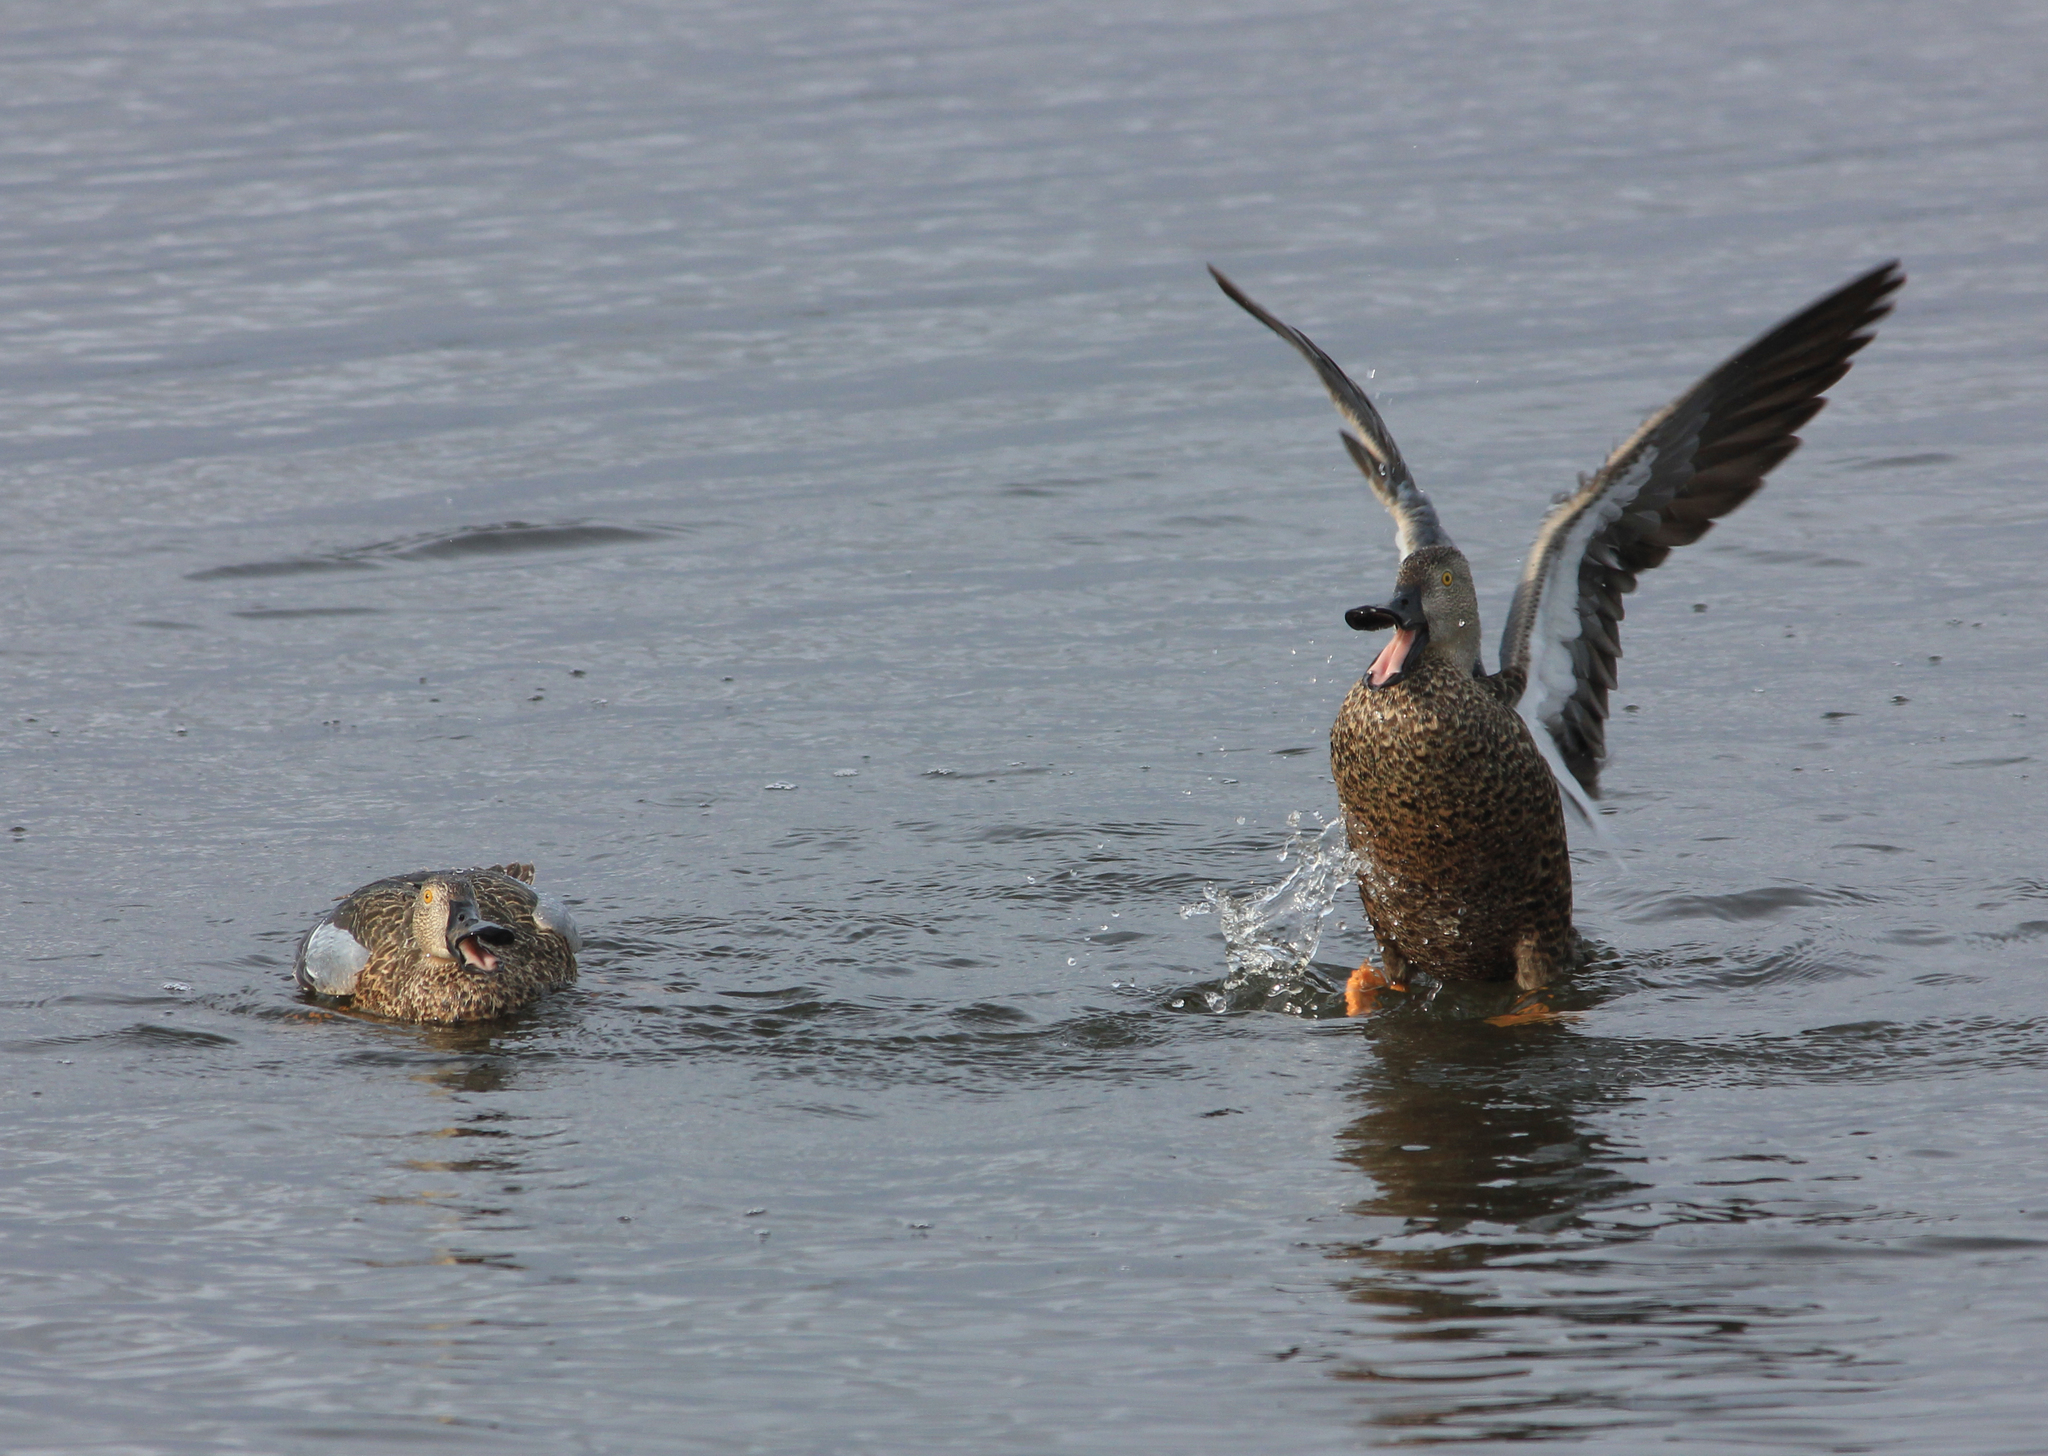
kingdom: Animalia
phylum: Chordata
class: Aves
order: Anseriformes
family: Anatidae
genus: Spatula
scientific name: Spatula smithii
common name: Cape shoveler
